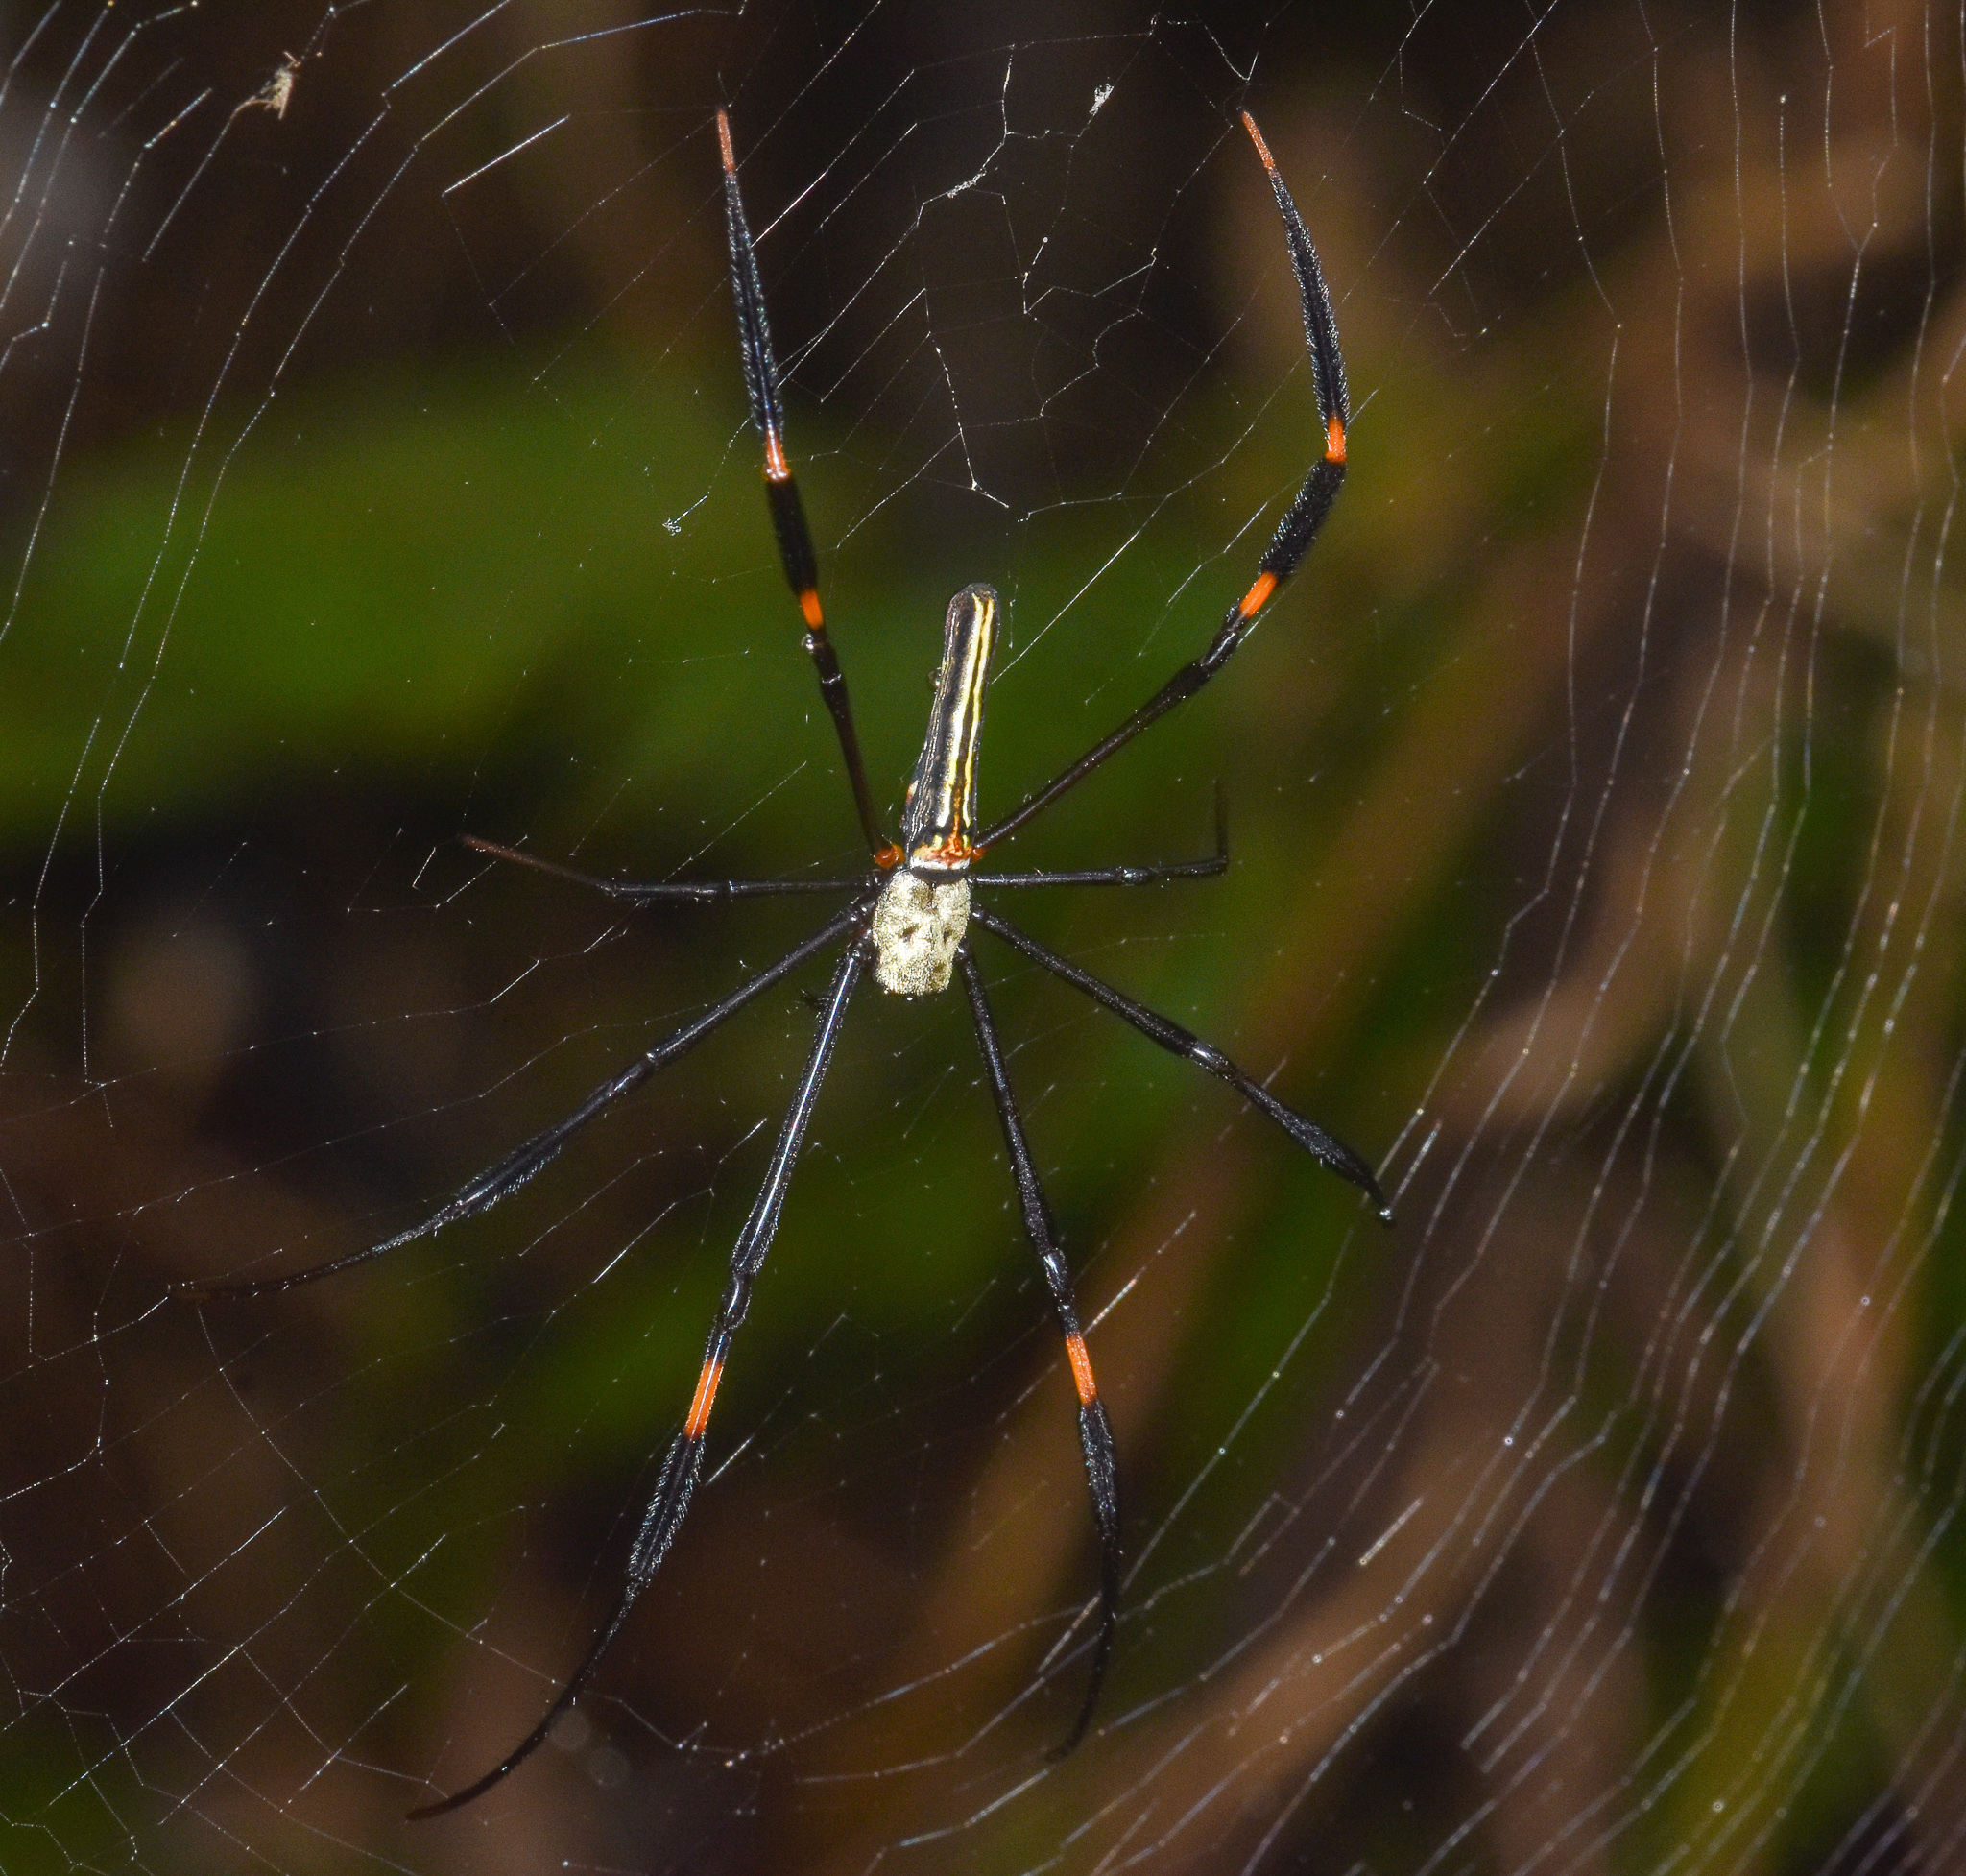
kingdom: Animalia
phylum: Arthropoda
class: Arachnida
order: Araneae
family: Araneidae
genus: Nephila
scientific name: Nephila pilipes
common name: Giant golden orb weaver
